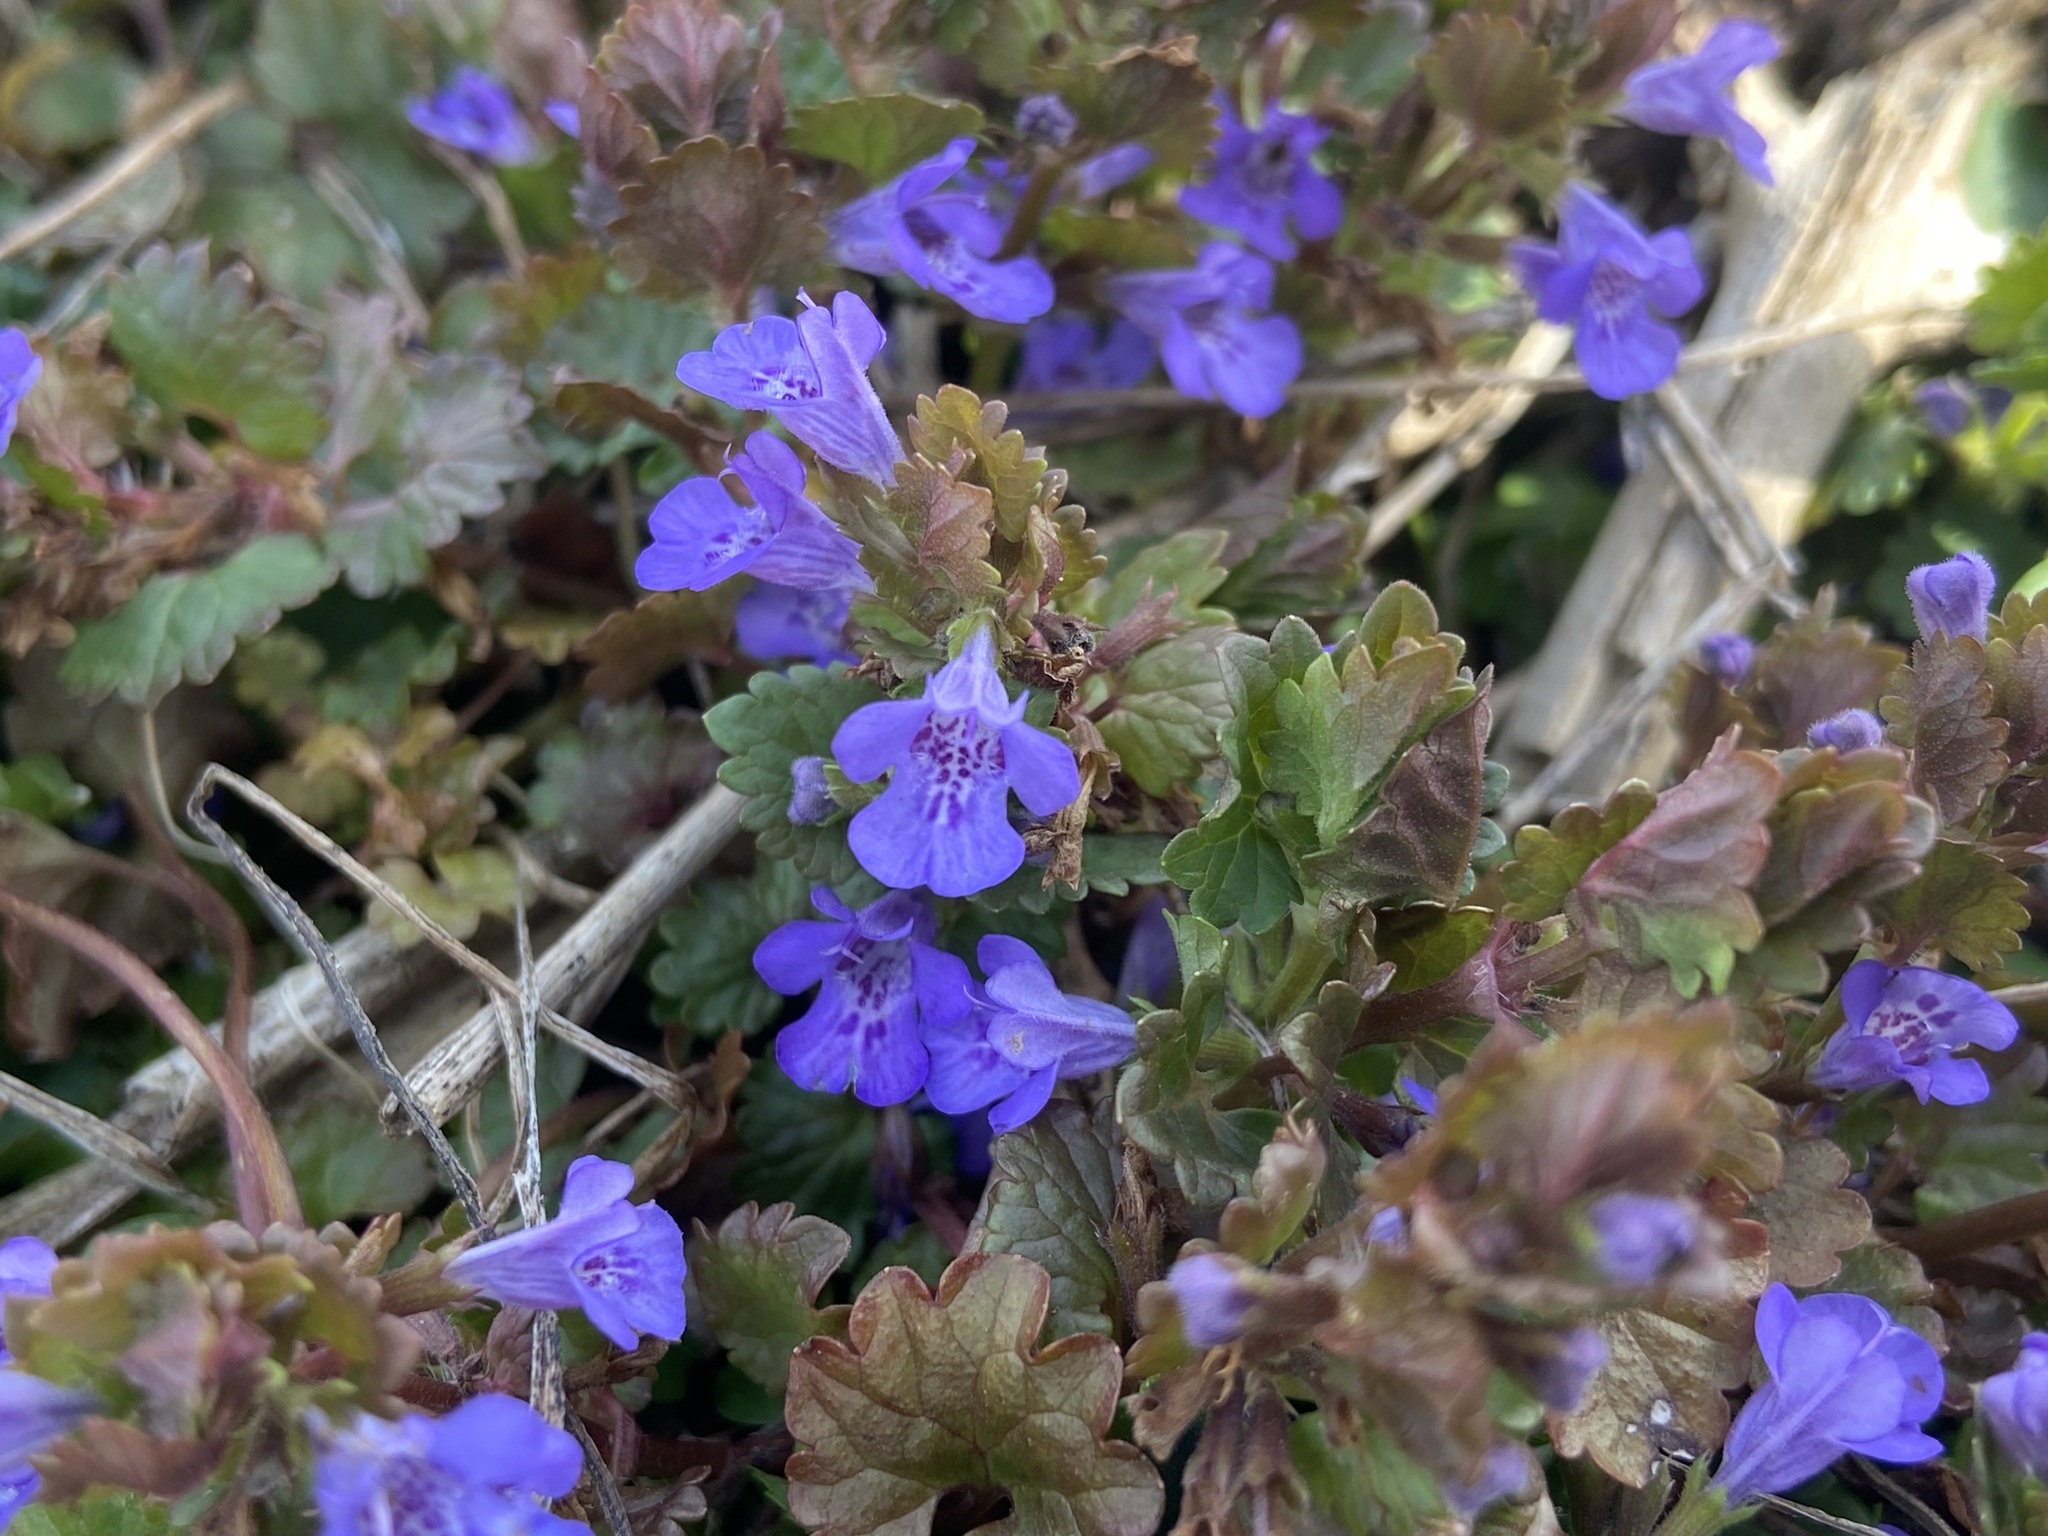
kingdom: Plantae
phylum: Tracheophyta
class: Magnoliopsida
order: Lamiales
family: Lamiaceae
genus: Glechoma
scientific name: Glechoma hederacea
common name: Ground ivy
